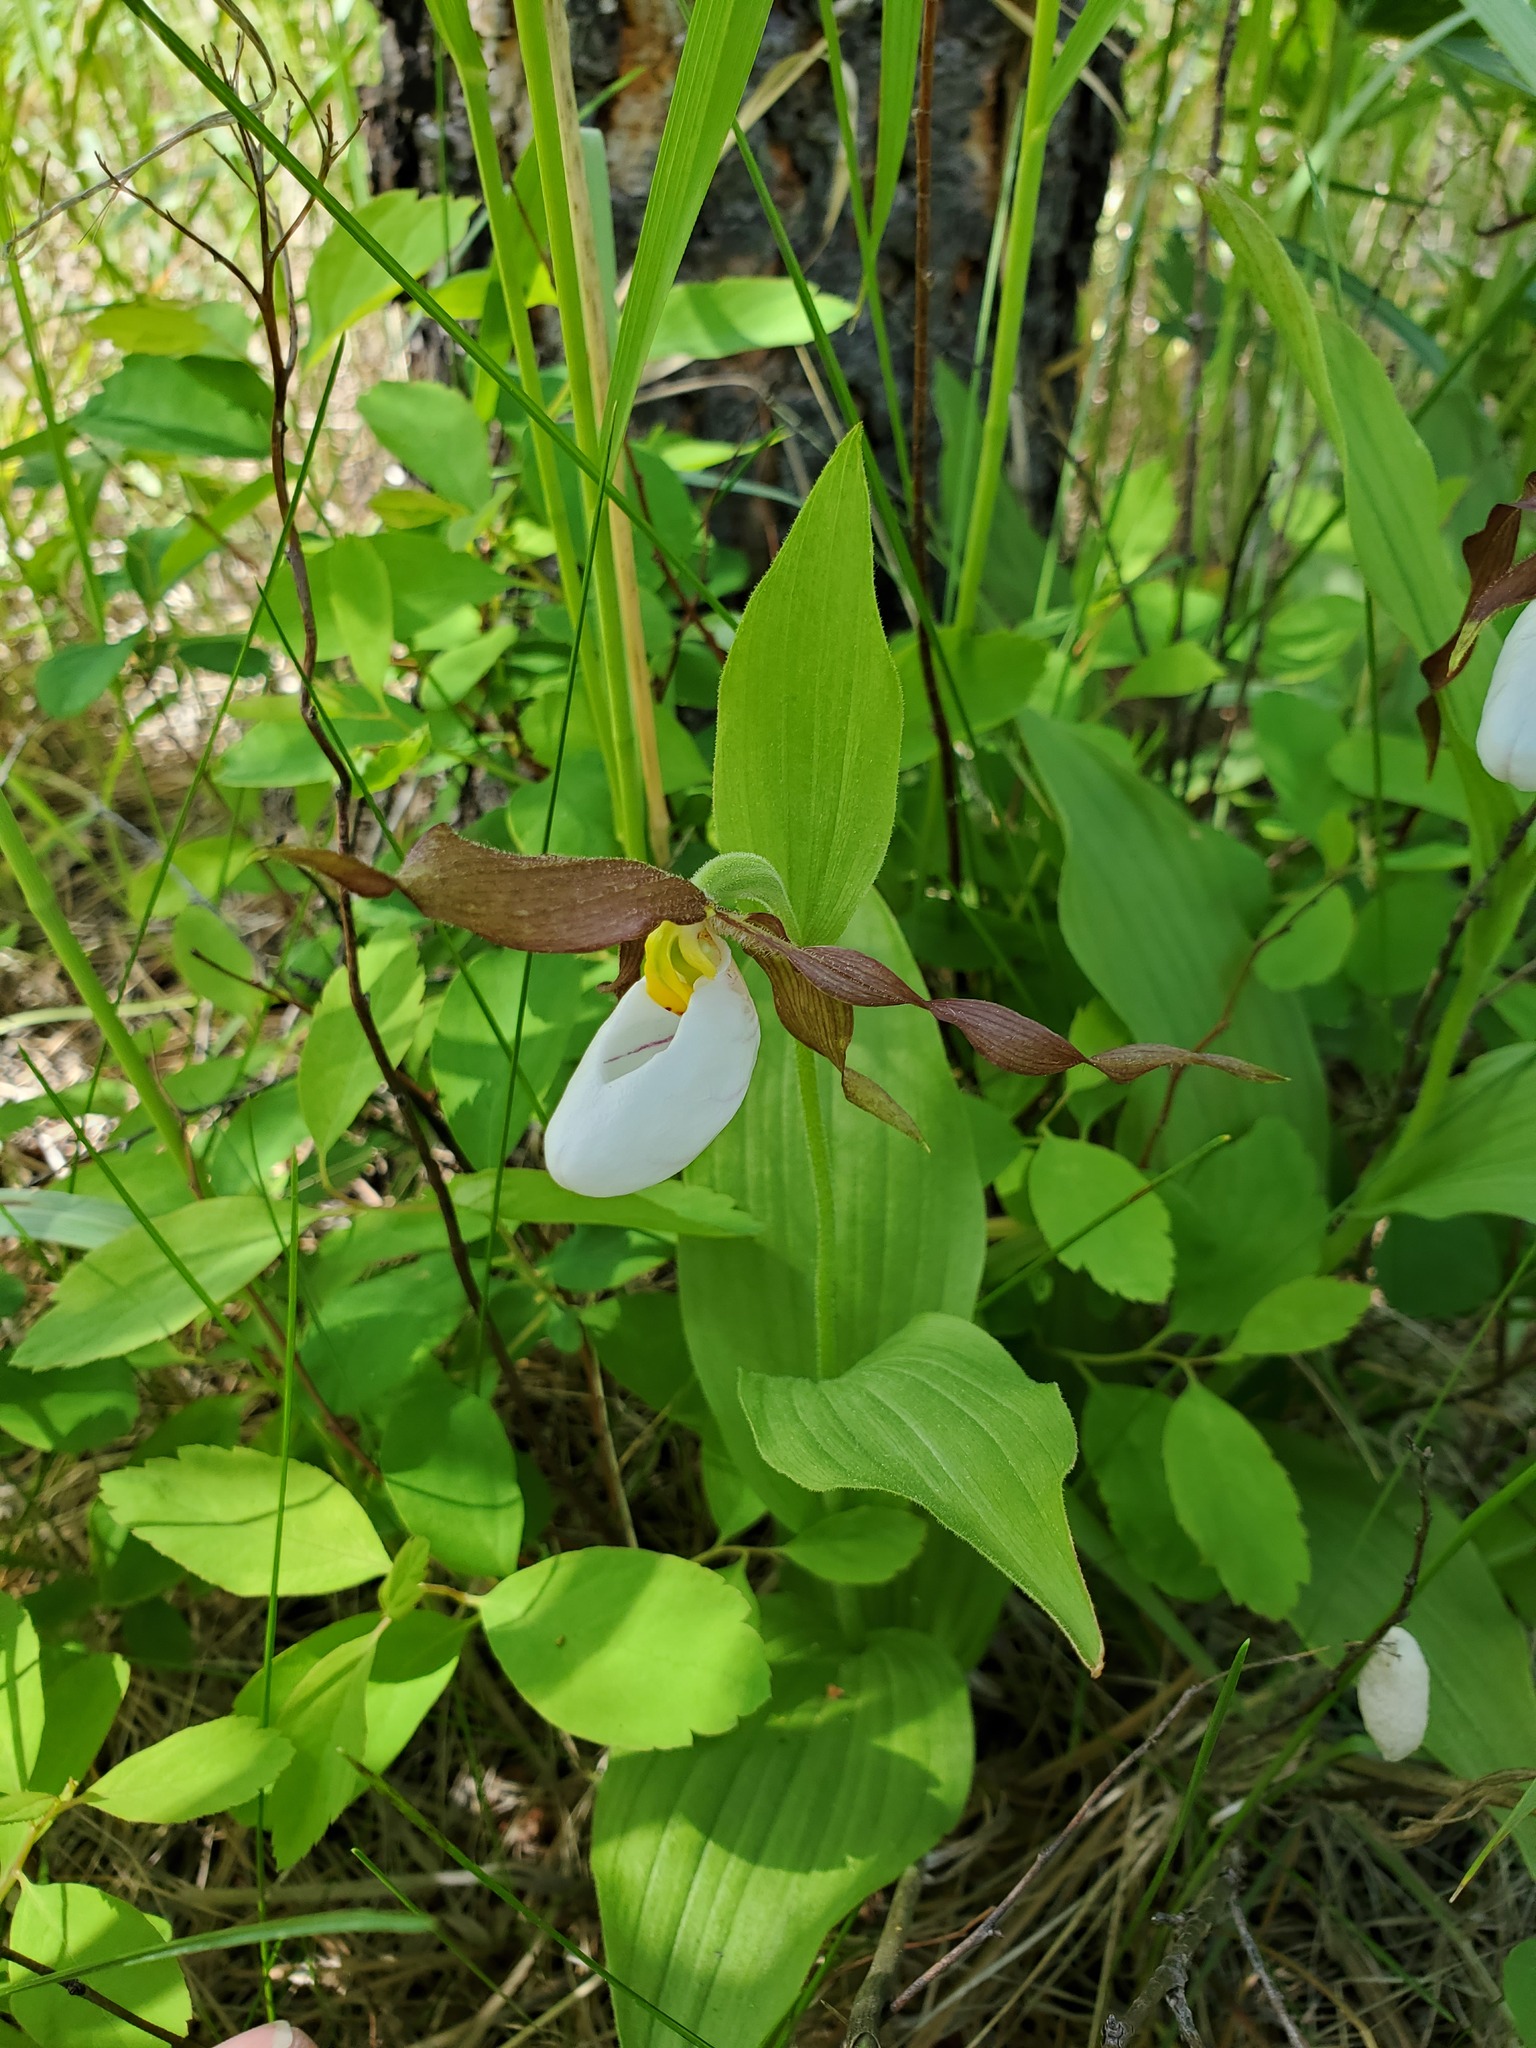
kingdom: Plantae
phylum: Tracheophyta
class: Liliopsida
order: Asparagales
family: Orchidaceae
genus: Cypripedium
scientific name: Cypripedium montanum
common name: Mountain lady's-slipper
